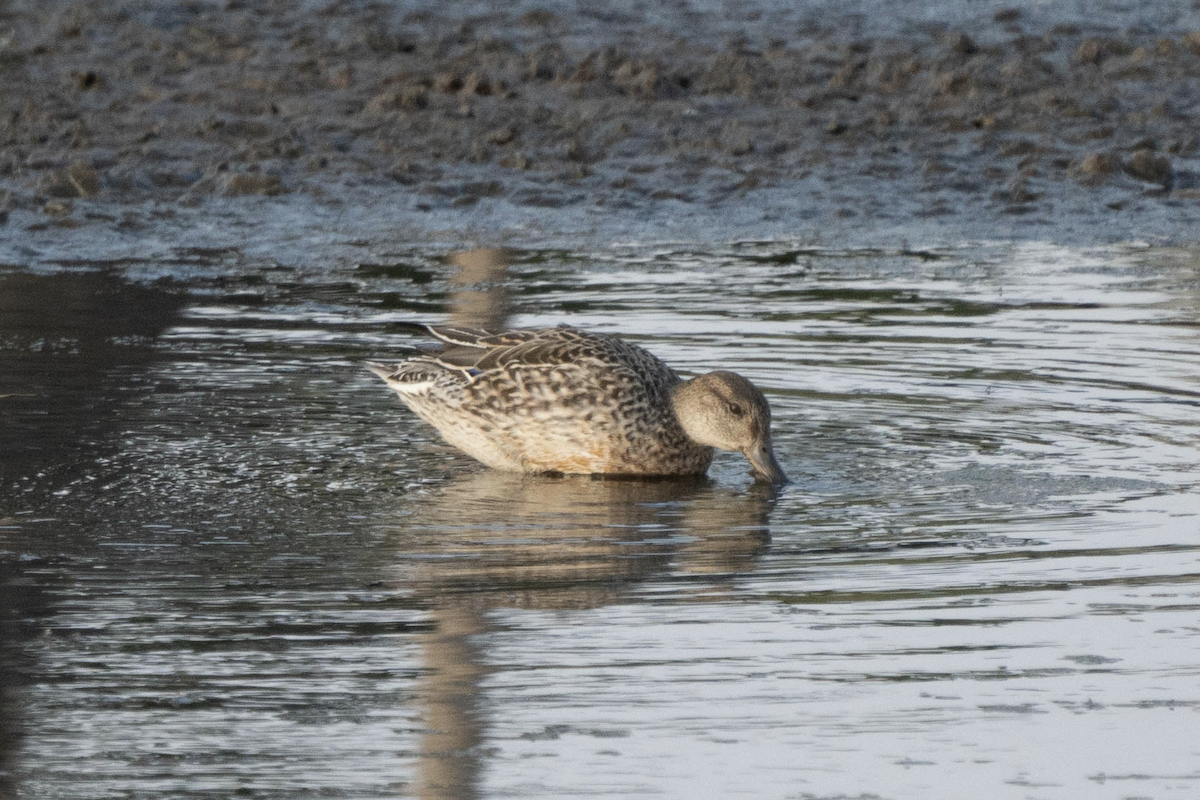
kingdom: Animalia
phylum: Chordata
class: Aves
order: Anseriformes
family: Anatidae
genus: Anas
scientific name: Anas crecca
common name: Eurasian teal
